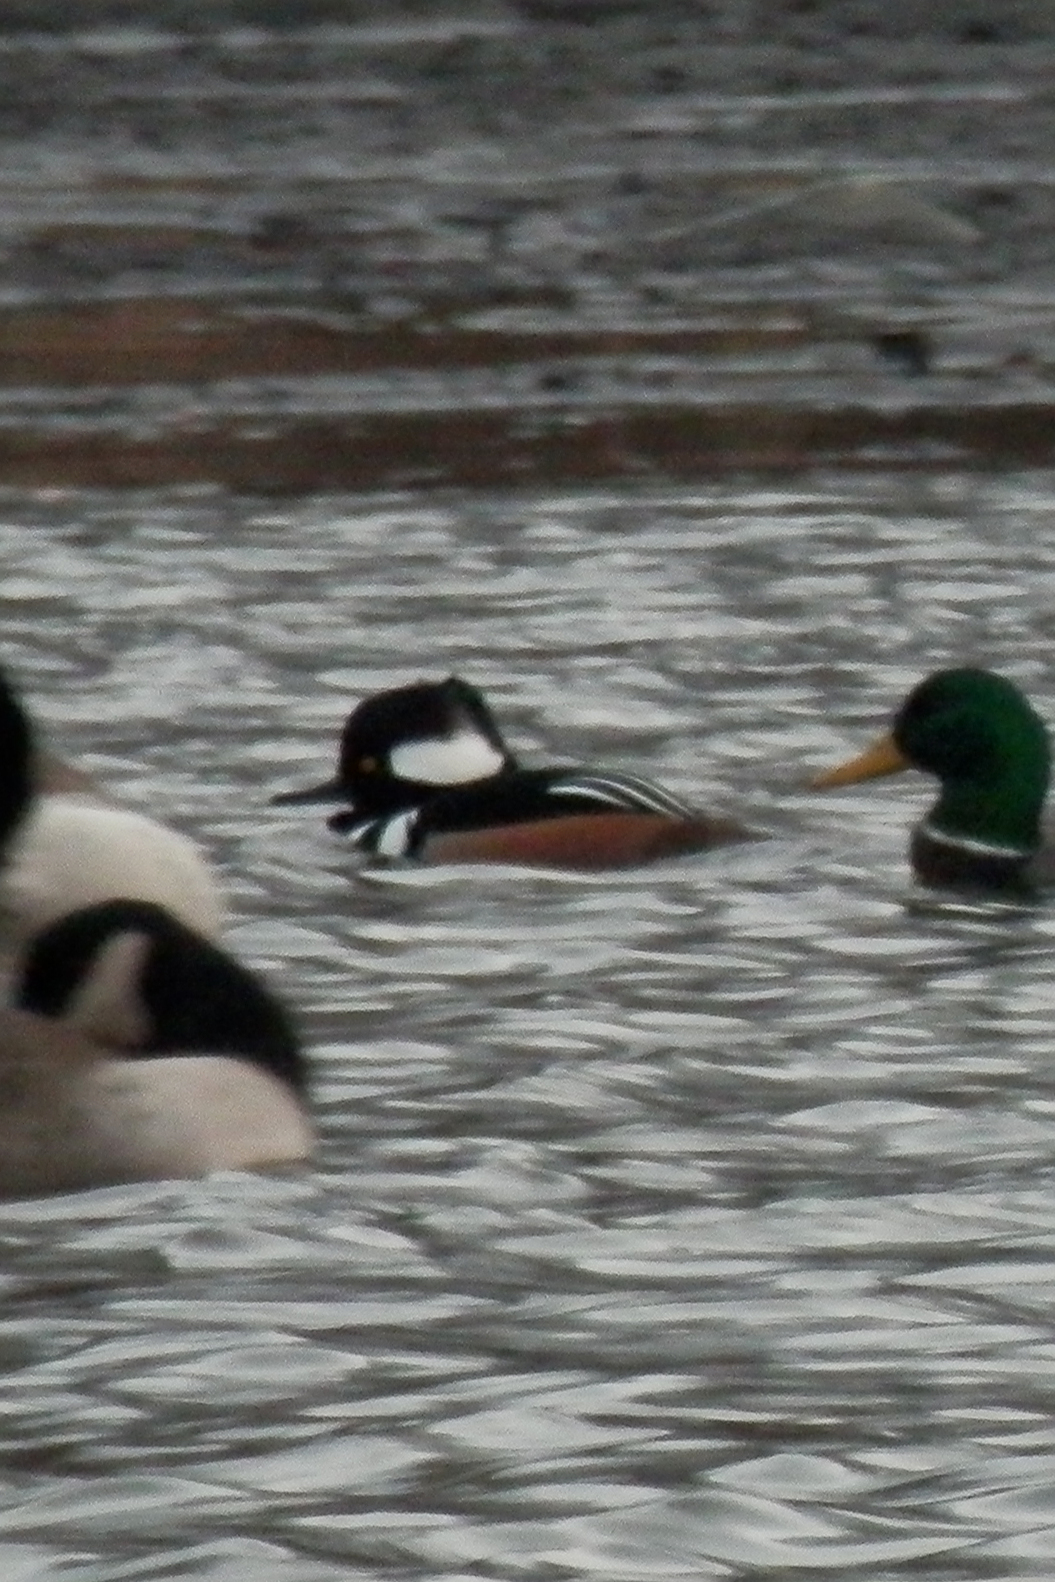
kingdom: Animalia
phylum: Chordata
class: Aves
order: Anseriformes
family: Anatidae
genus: Lophodytes
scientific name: Lophodytes cucullatus
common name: Hooded merganser
